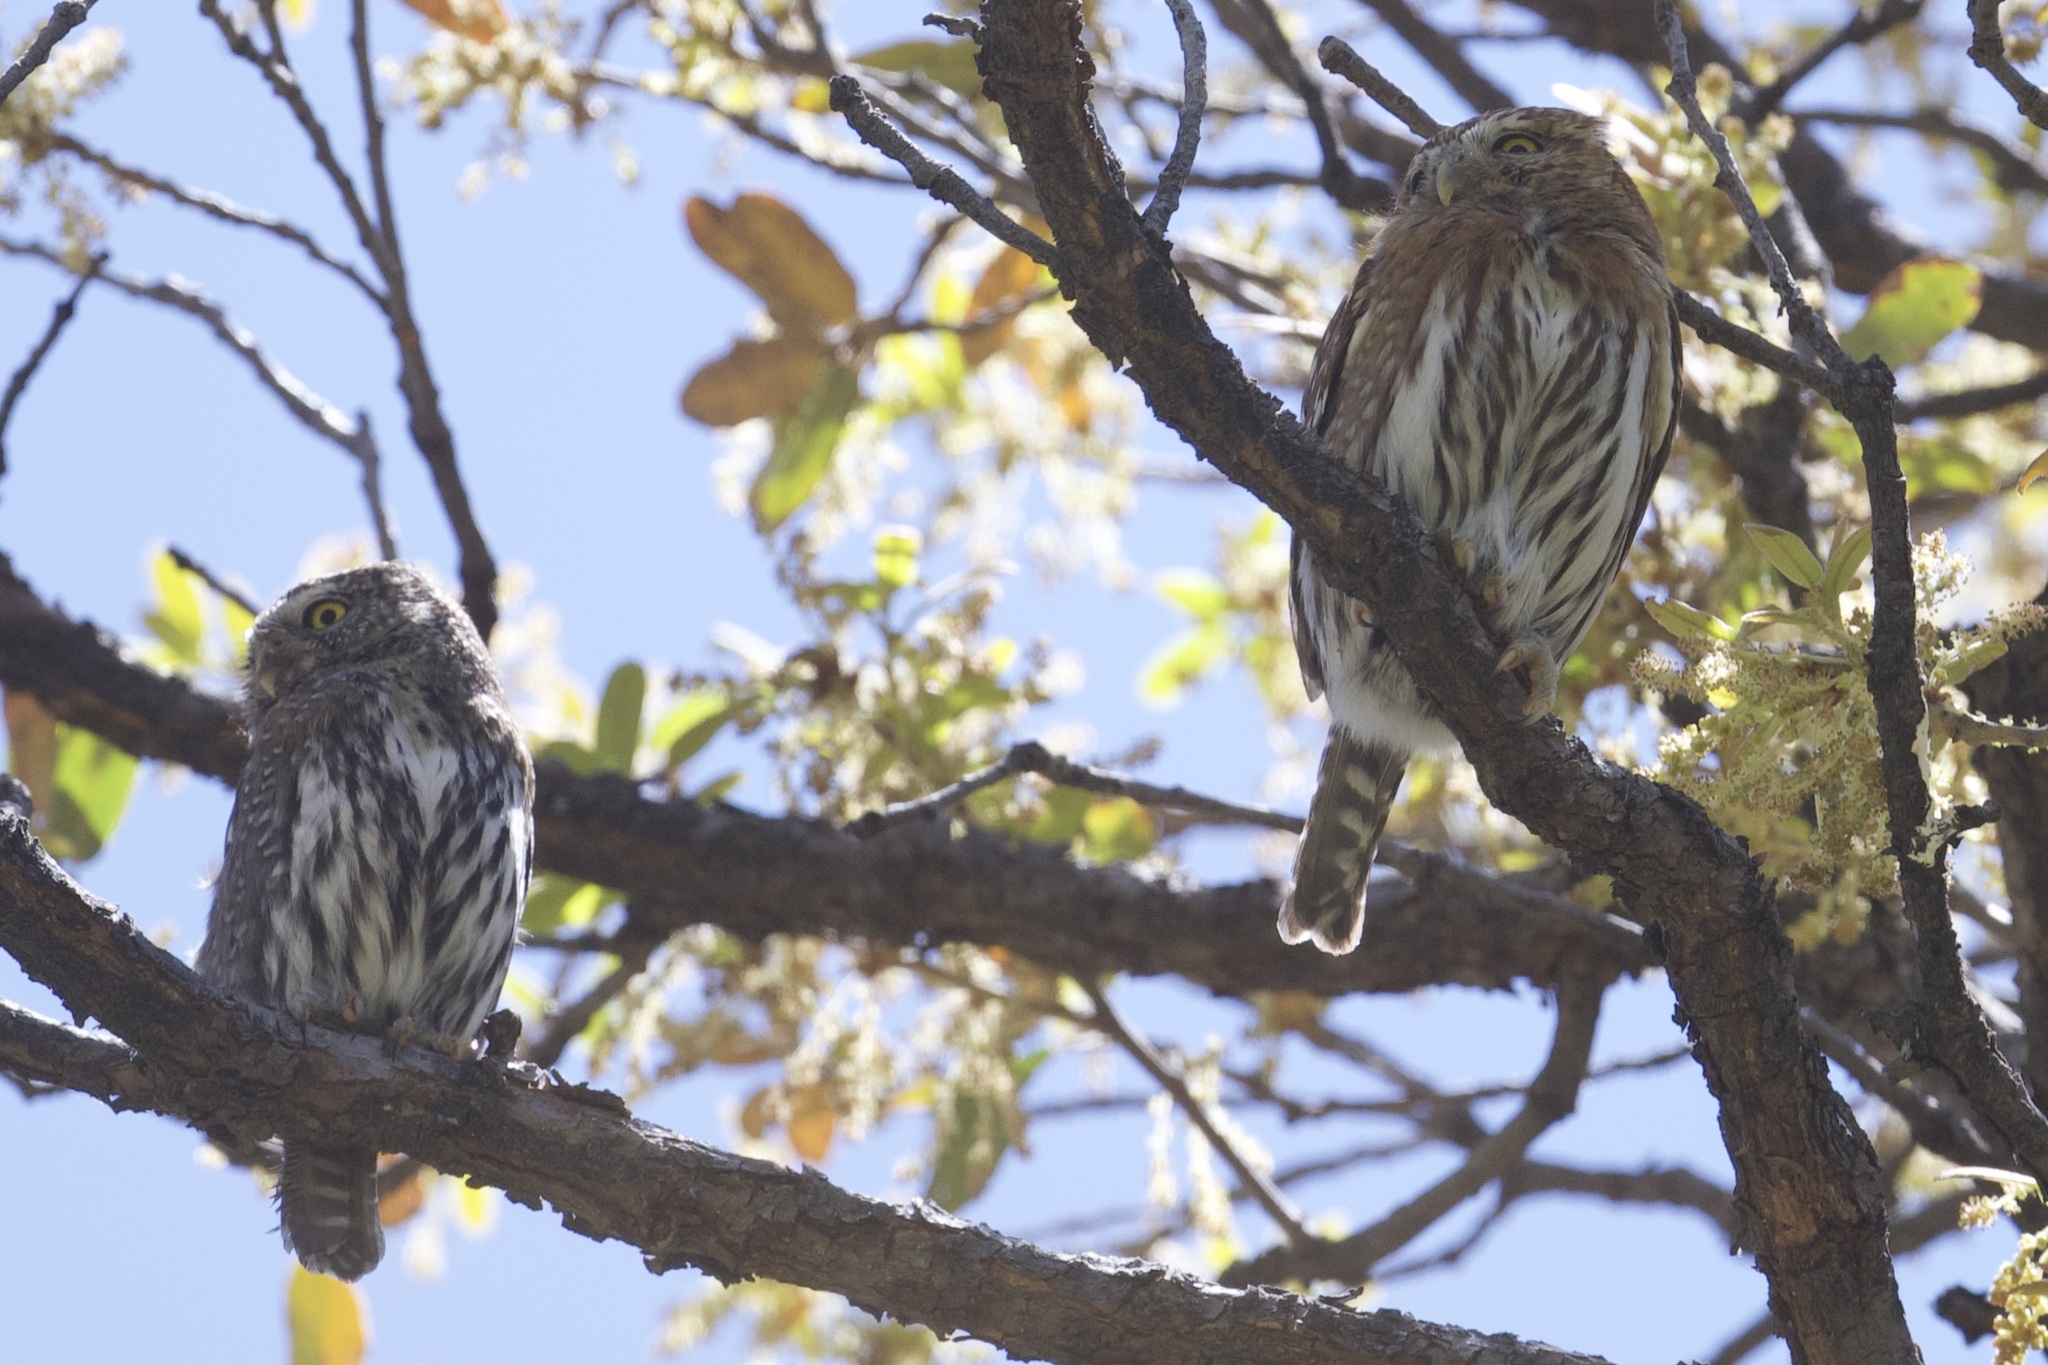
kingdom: Animalia
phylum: Chordata
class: Aves
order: Strigiformes
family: Strigidae
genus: Glaucidium
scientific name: Glaucidium gnoma
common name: Northern pygmy-owl
